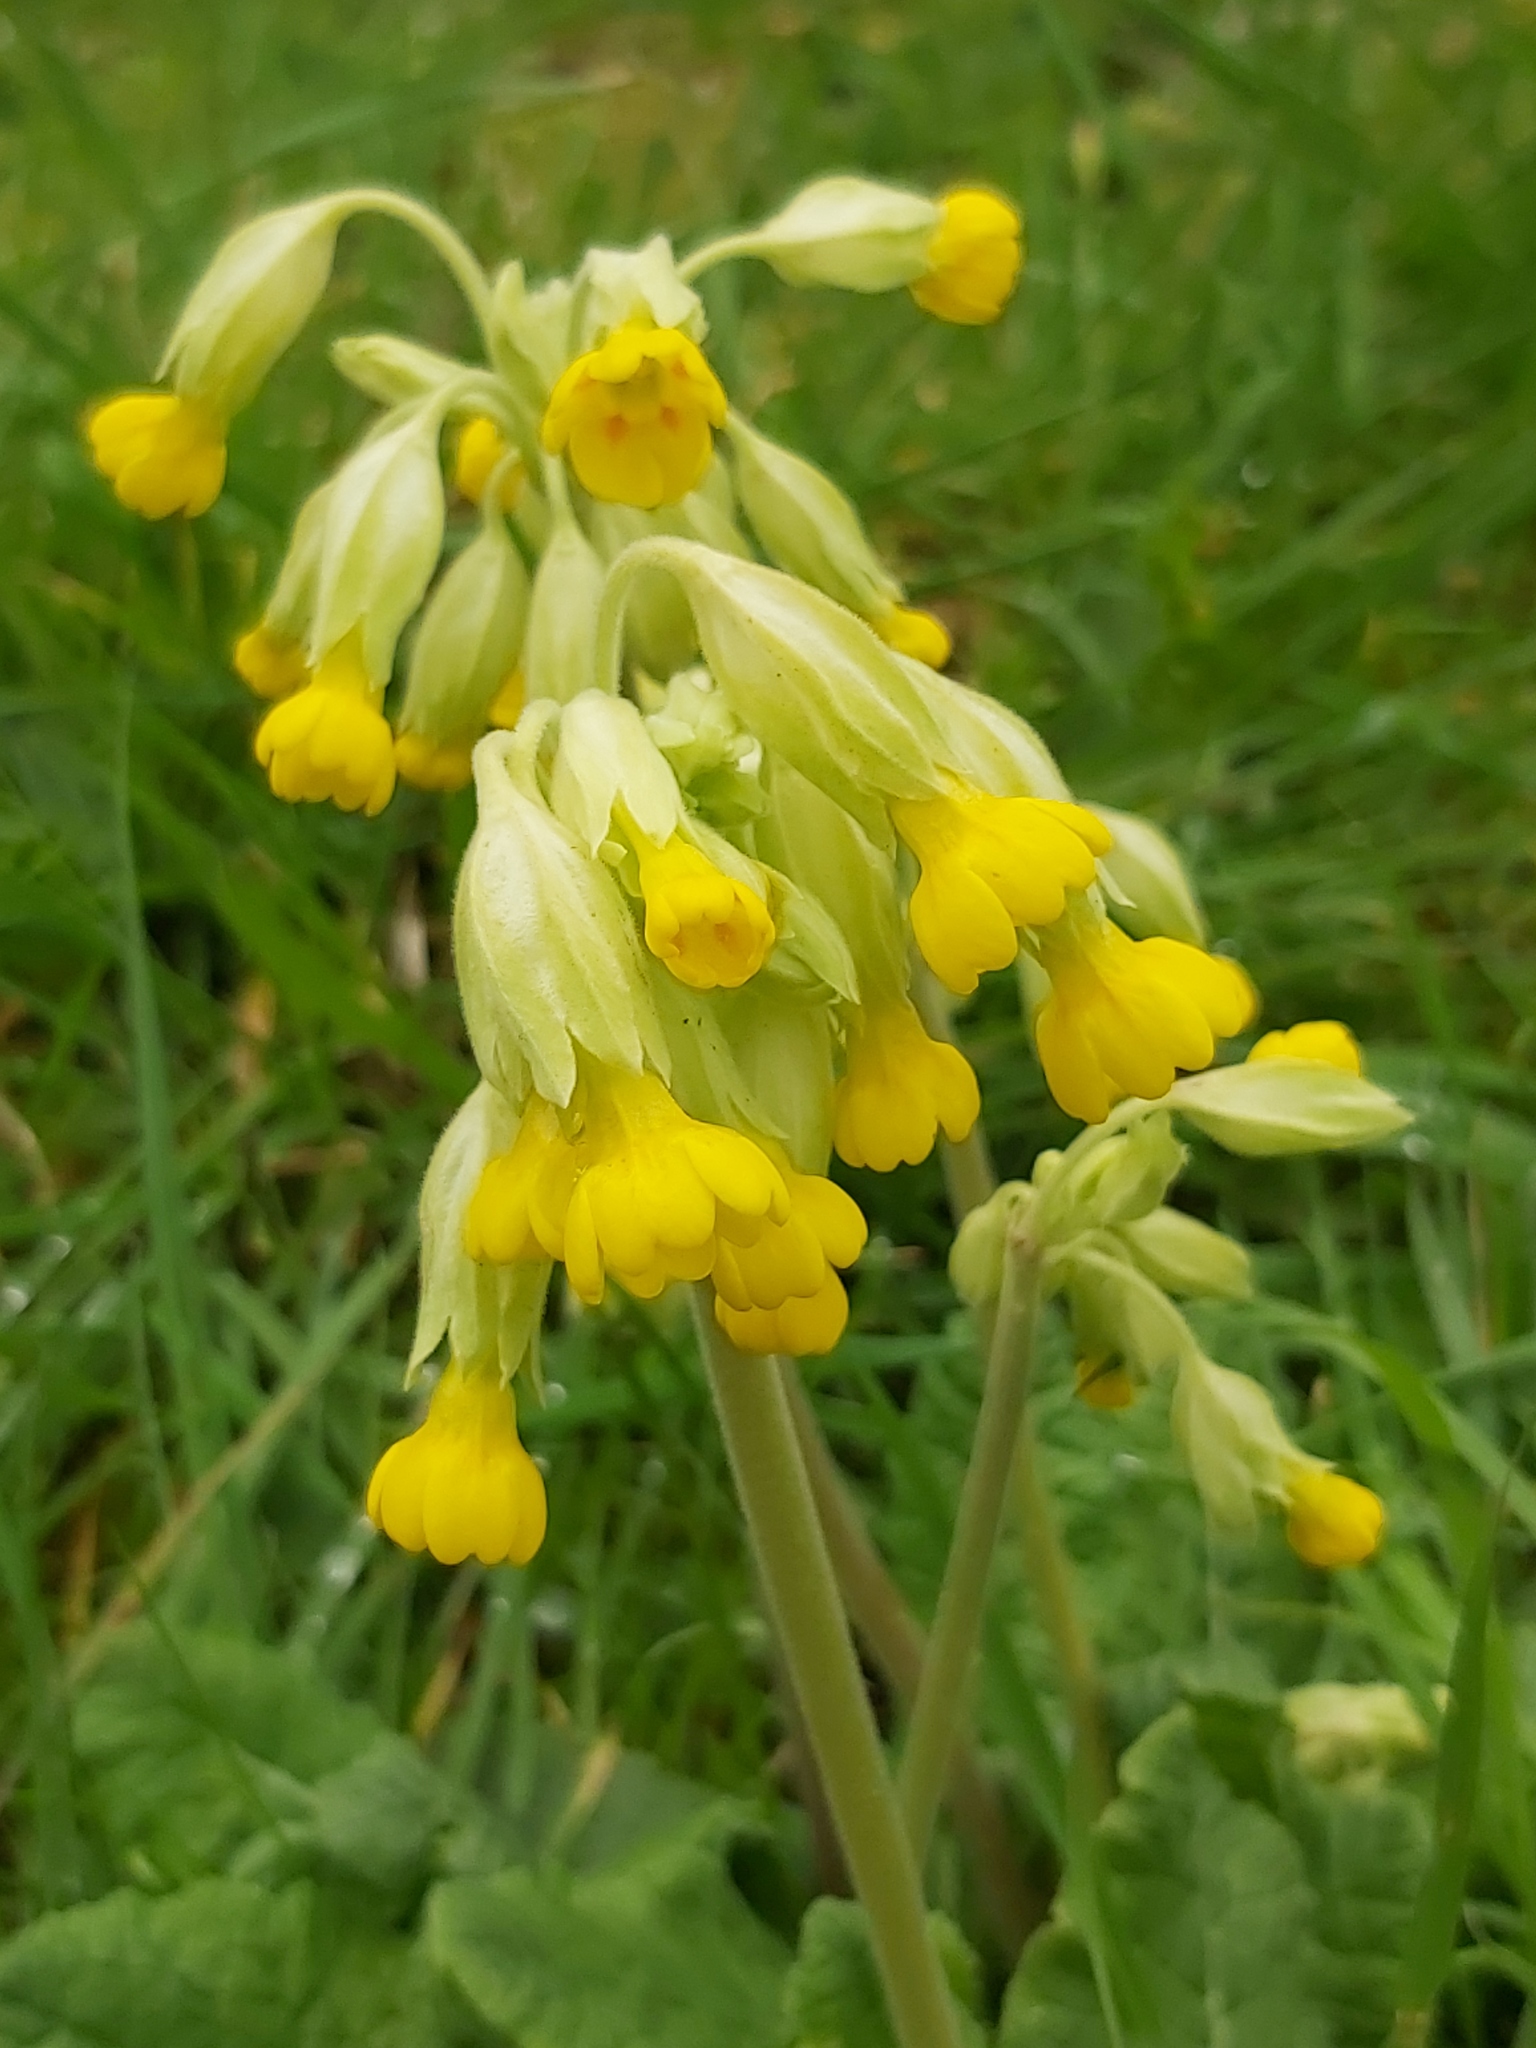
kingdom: Plantae
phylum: Tracheophyta
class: Magnoliopsida
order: Ericales
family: Primulaceae
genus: Primula
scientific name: Primula veris
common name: Cowslip
